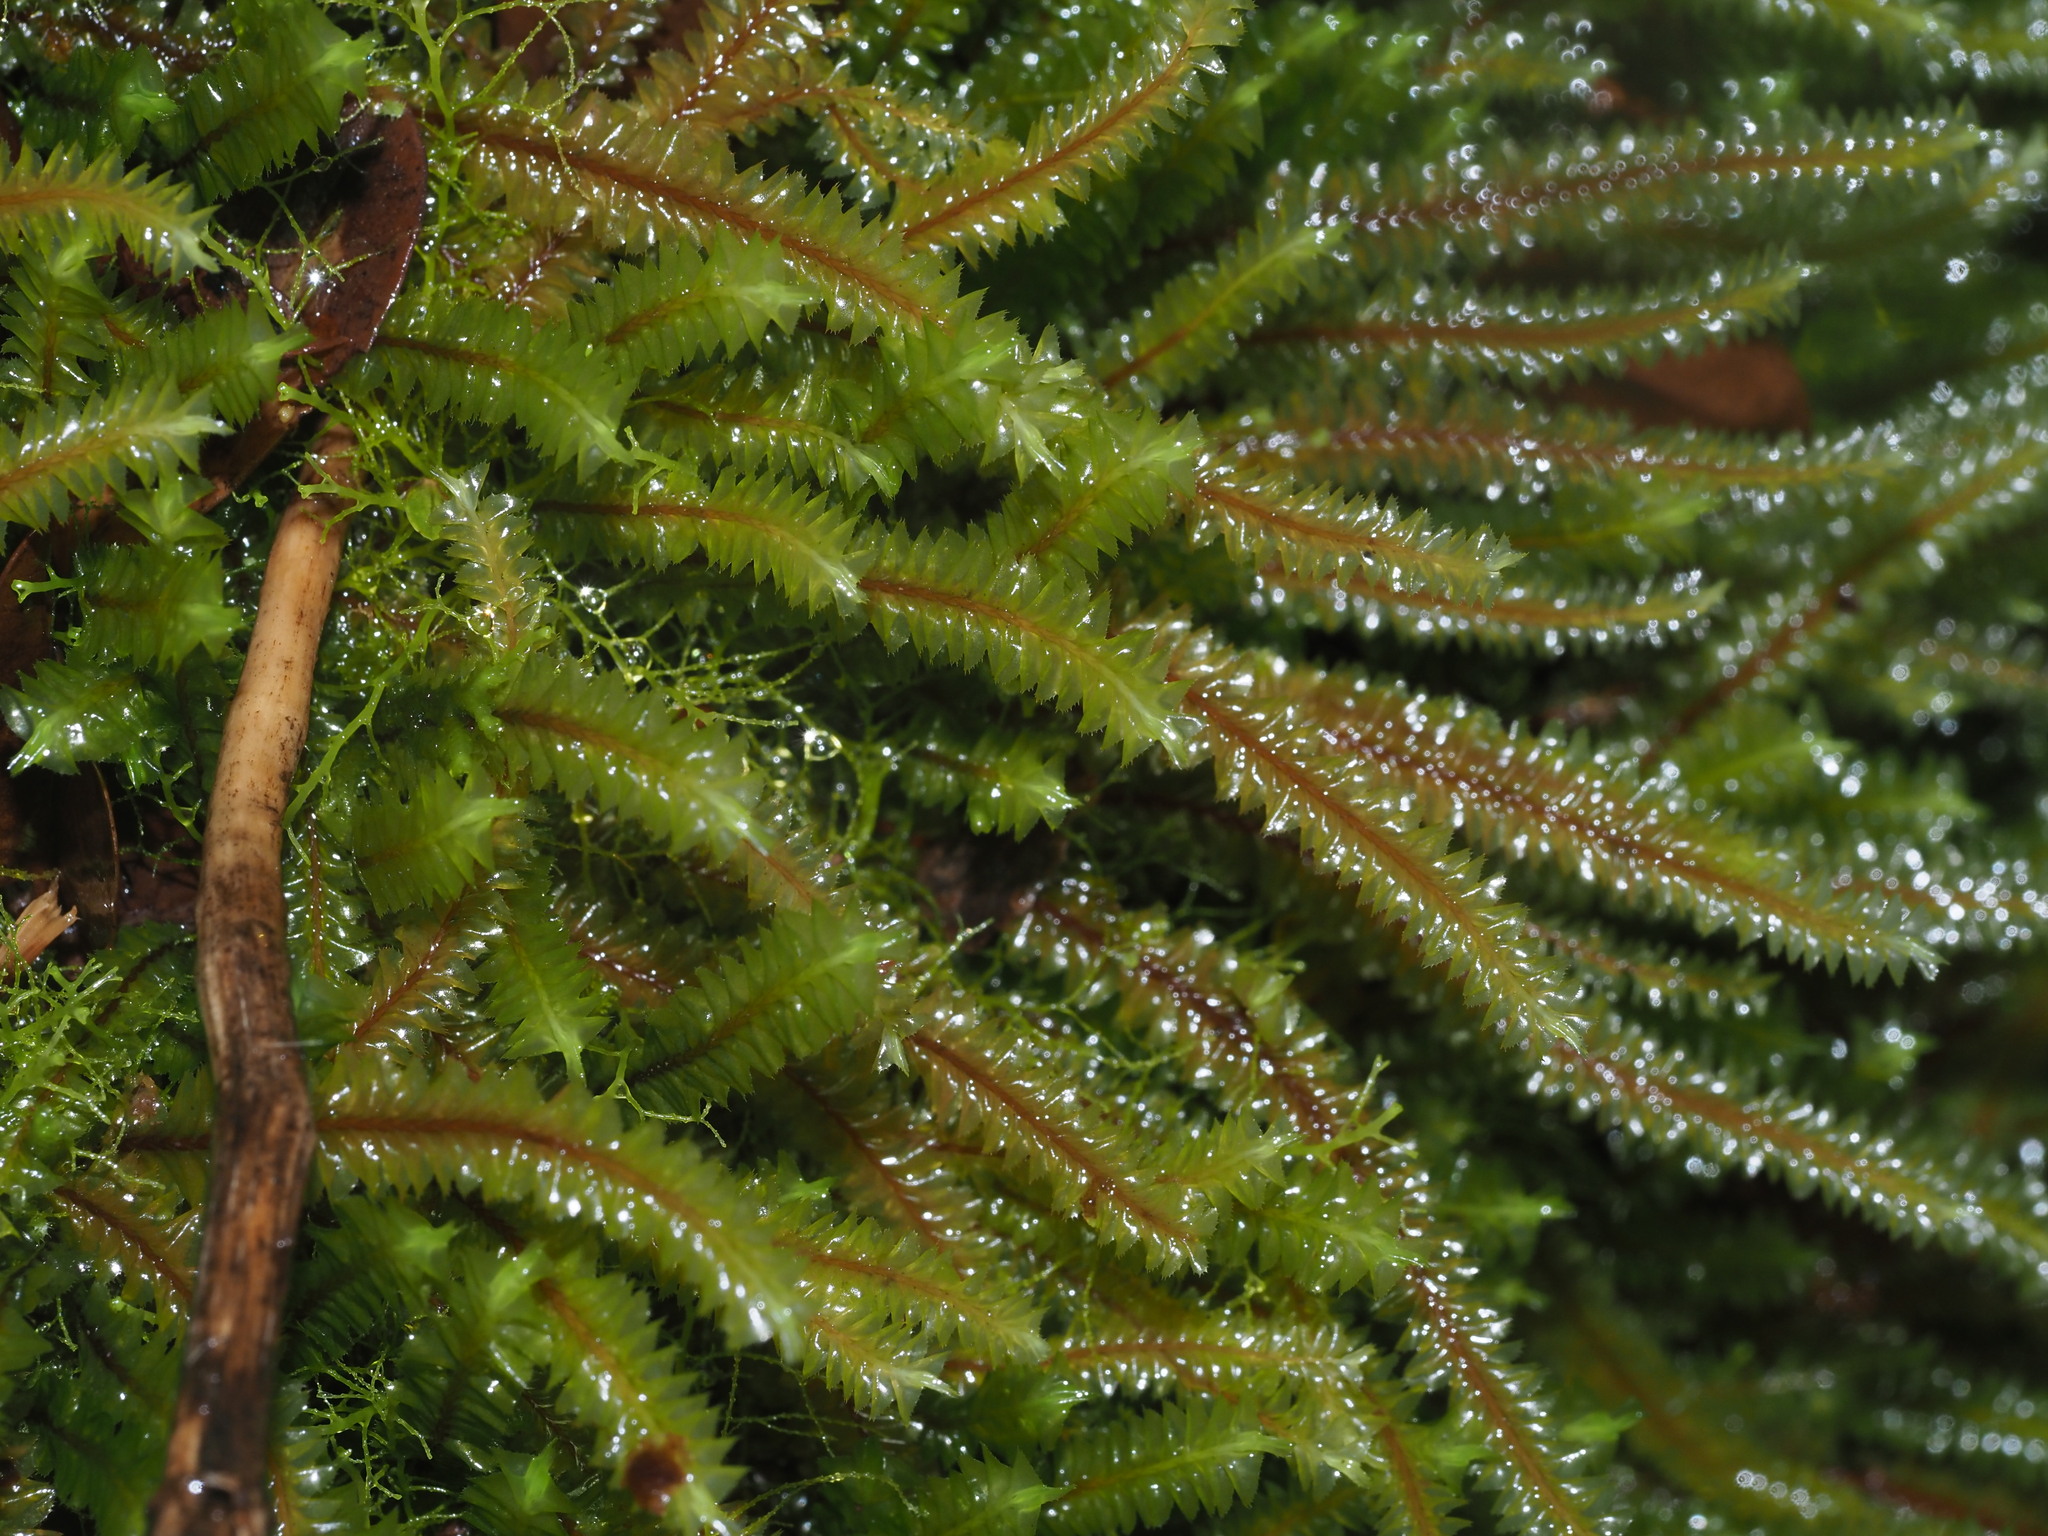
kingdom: Plantae
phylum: Marchantiophyta
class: Jungermanniopsida
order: Jungermanniales
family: Plagiochilaceae
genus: Plagiochila
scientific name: Plagiochila deflexa
